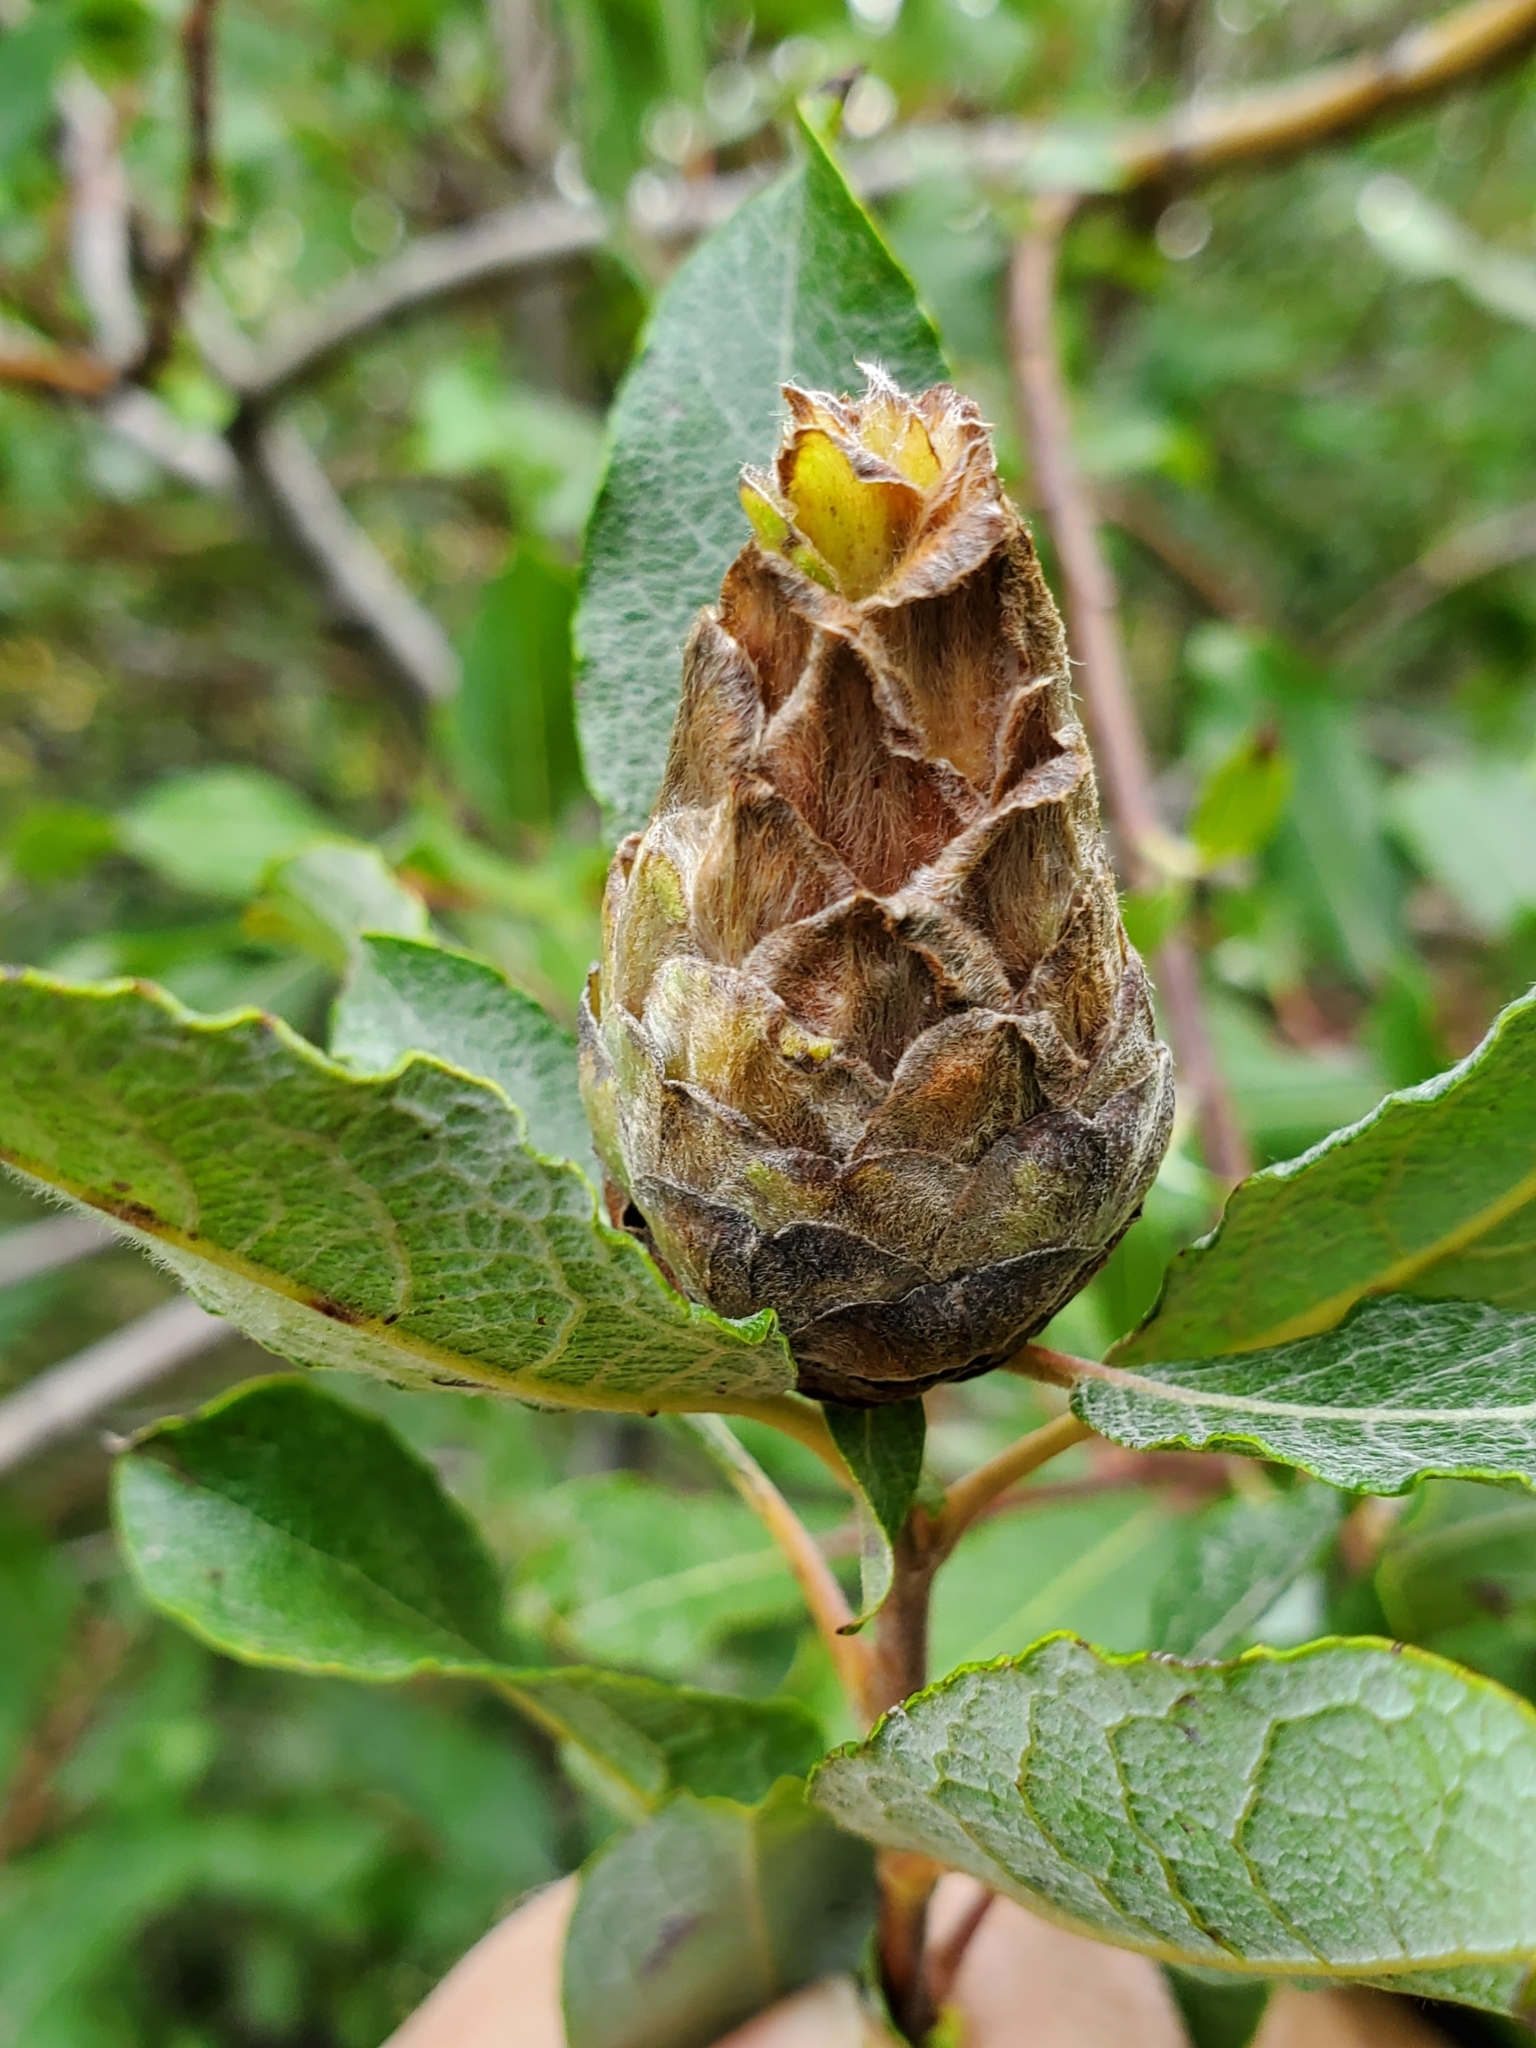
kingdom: Animalia
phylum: Arthropoda
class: Insecta
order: Diptera
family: Cecidomyiidae
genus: Rabdophaga
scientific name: Rabdophaga strobiloides
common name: Willow pinecone gall midge
